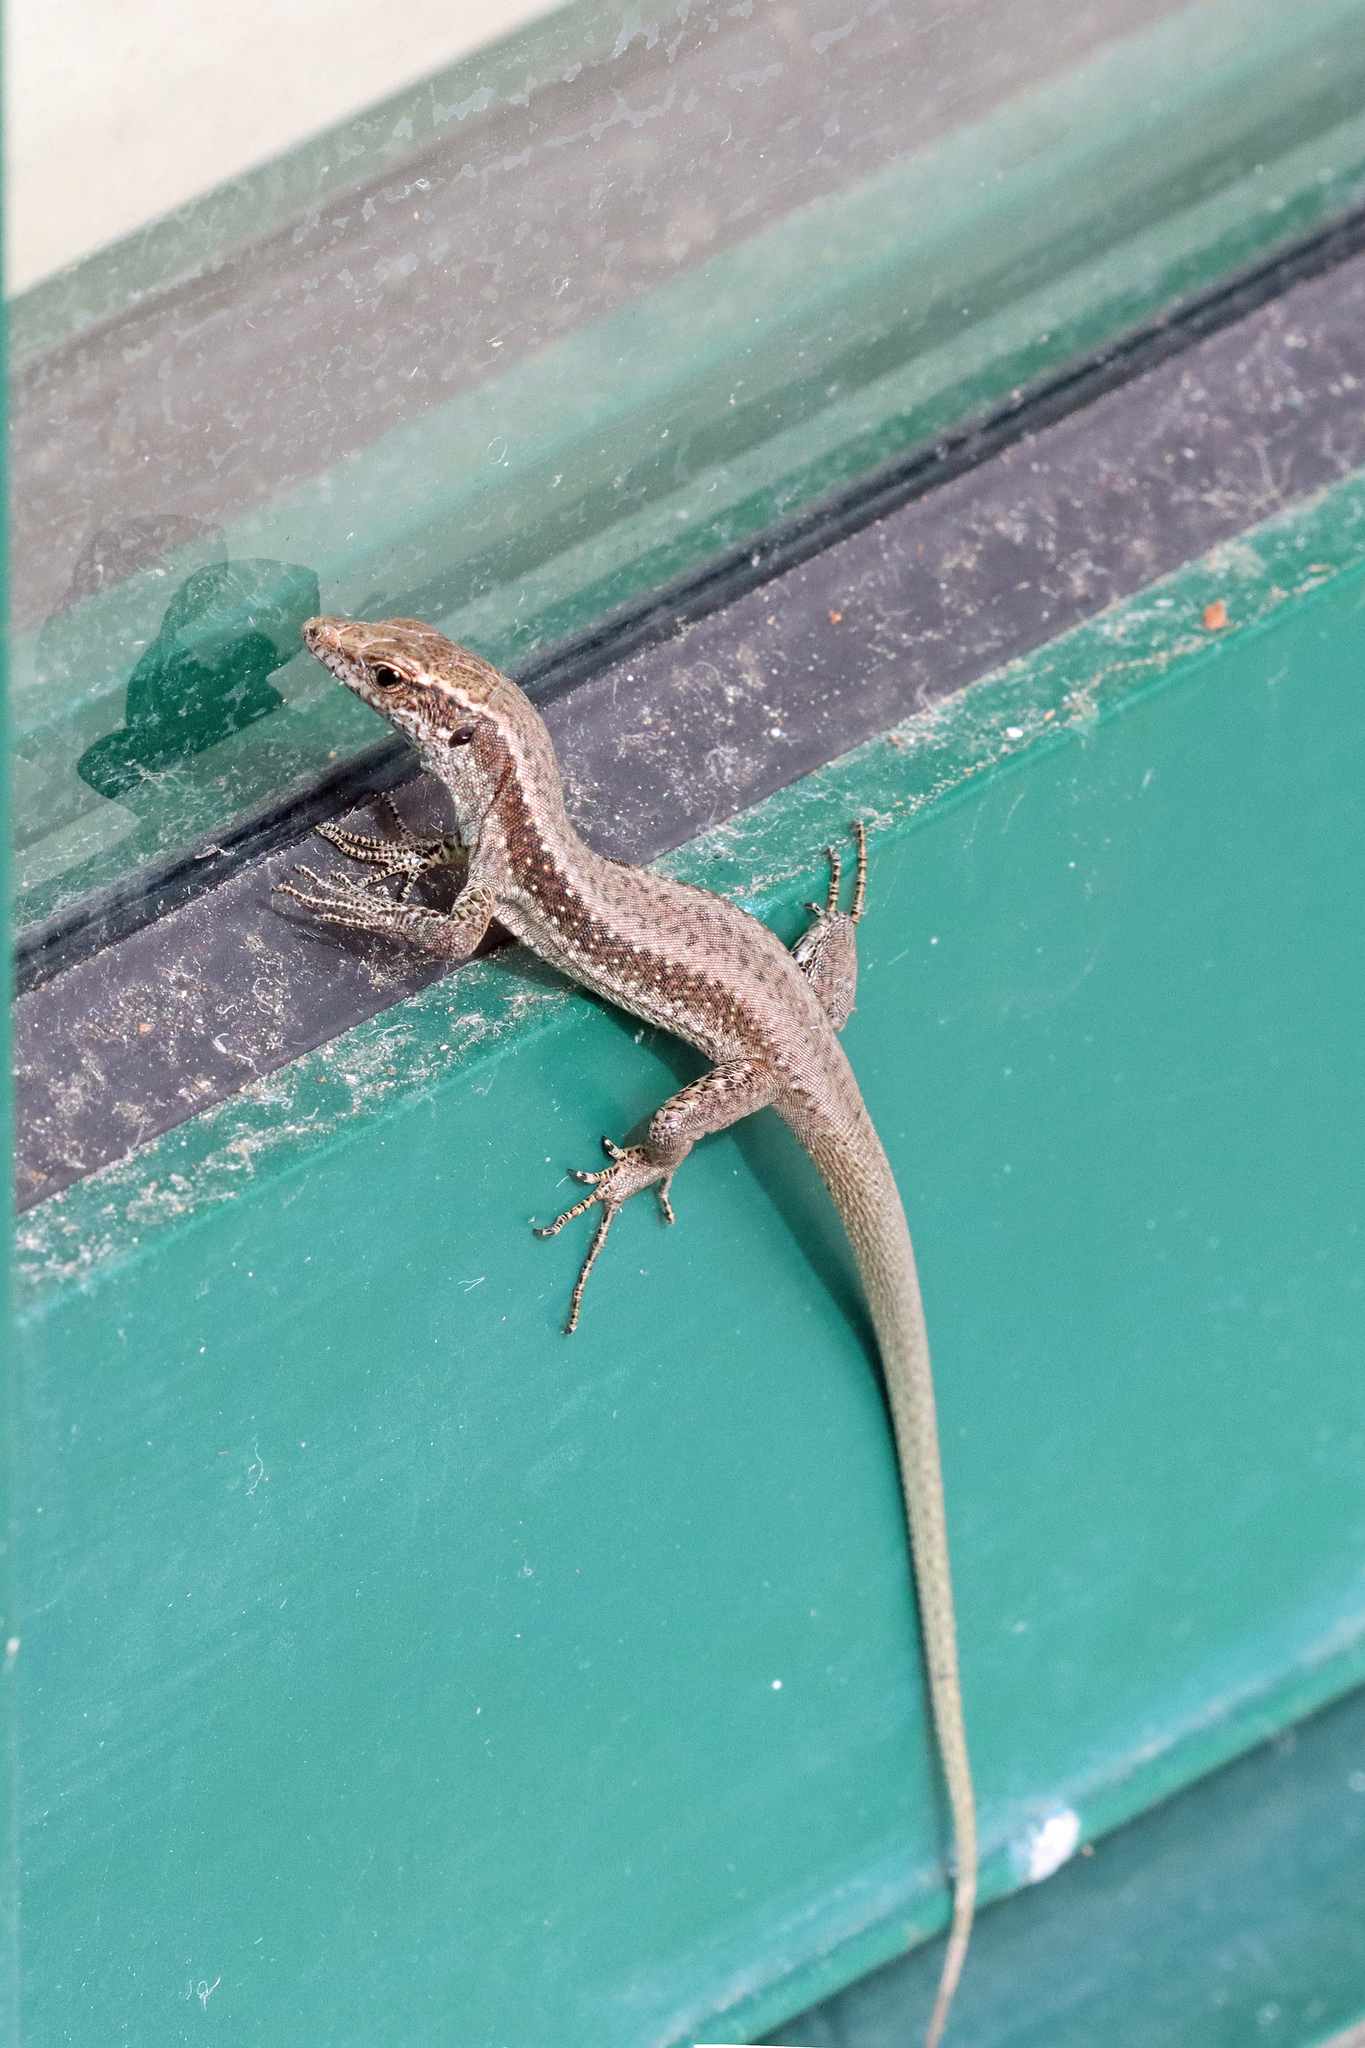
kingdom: Animalia
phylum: Chordata
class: Squamata
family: Lacertidae
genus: Teira
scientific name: Teira dugesii
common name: Madeira lizard
